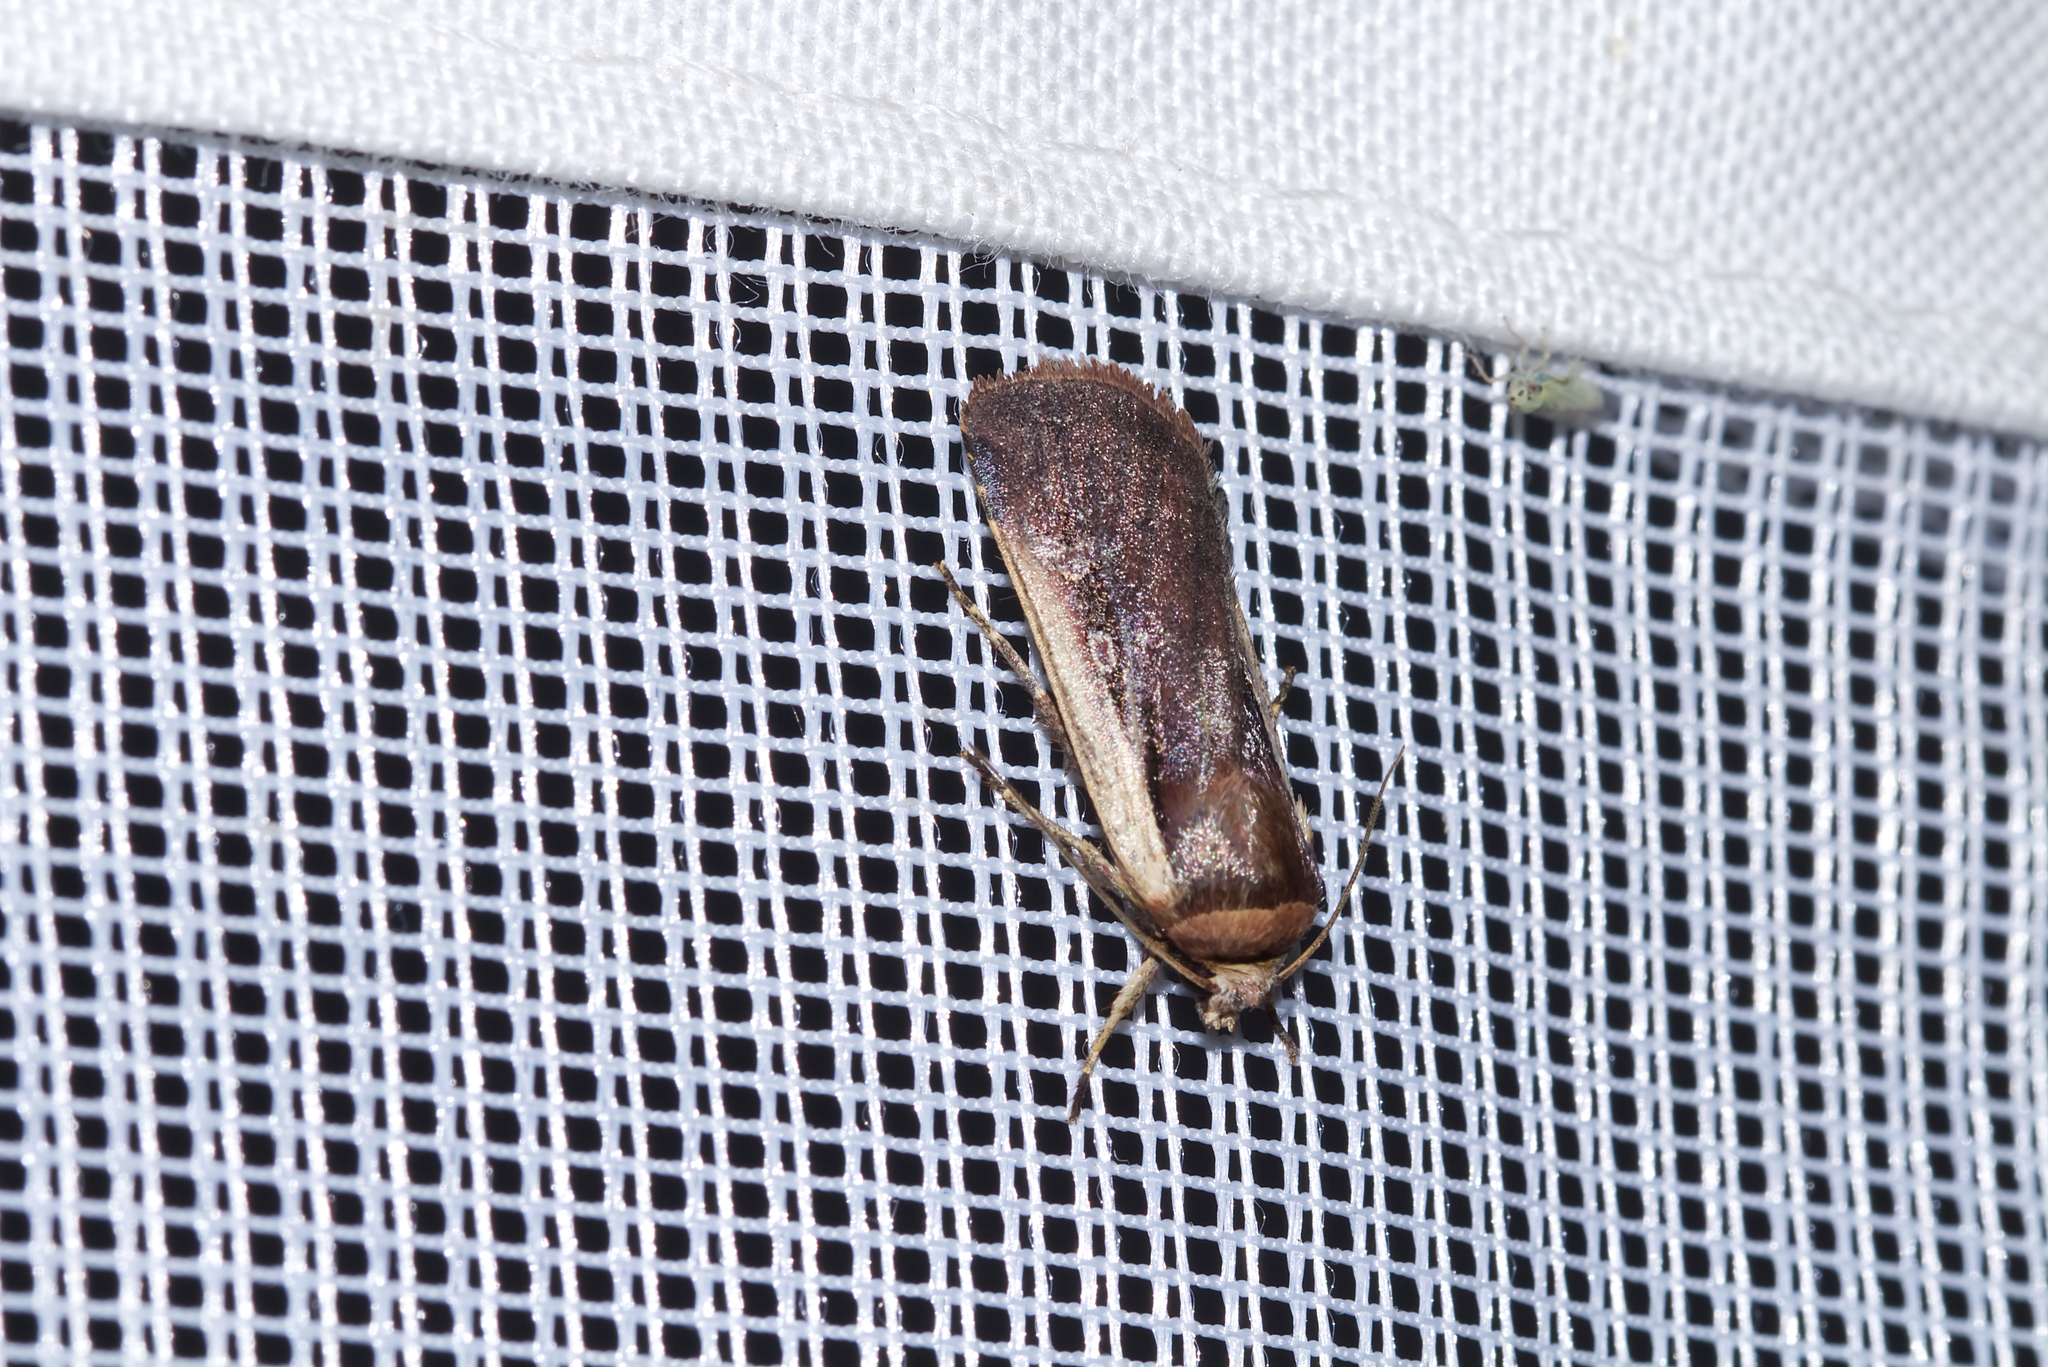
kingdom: Animalia
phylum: Arthropoda
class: Insecta
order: Lepidoptera
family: Noctuidae
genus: Ochropleura
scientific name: Ochropleura plecta
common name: Flame shoulder
